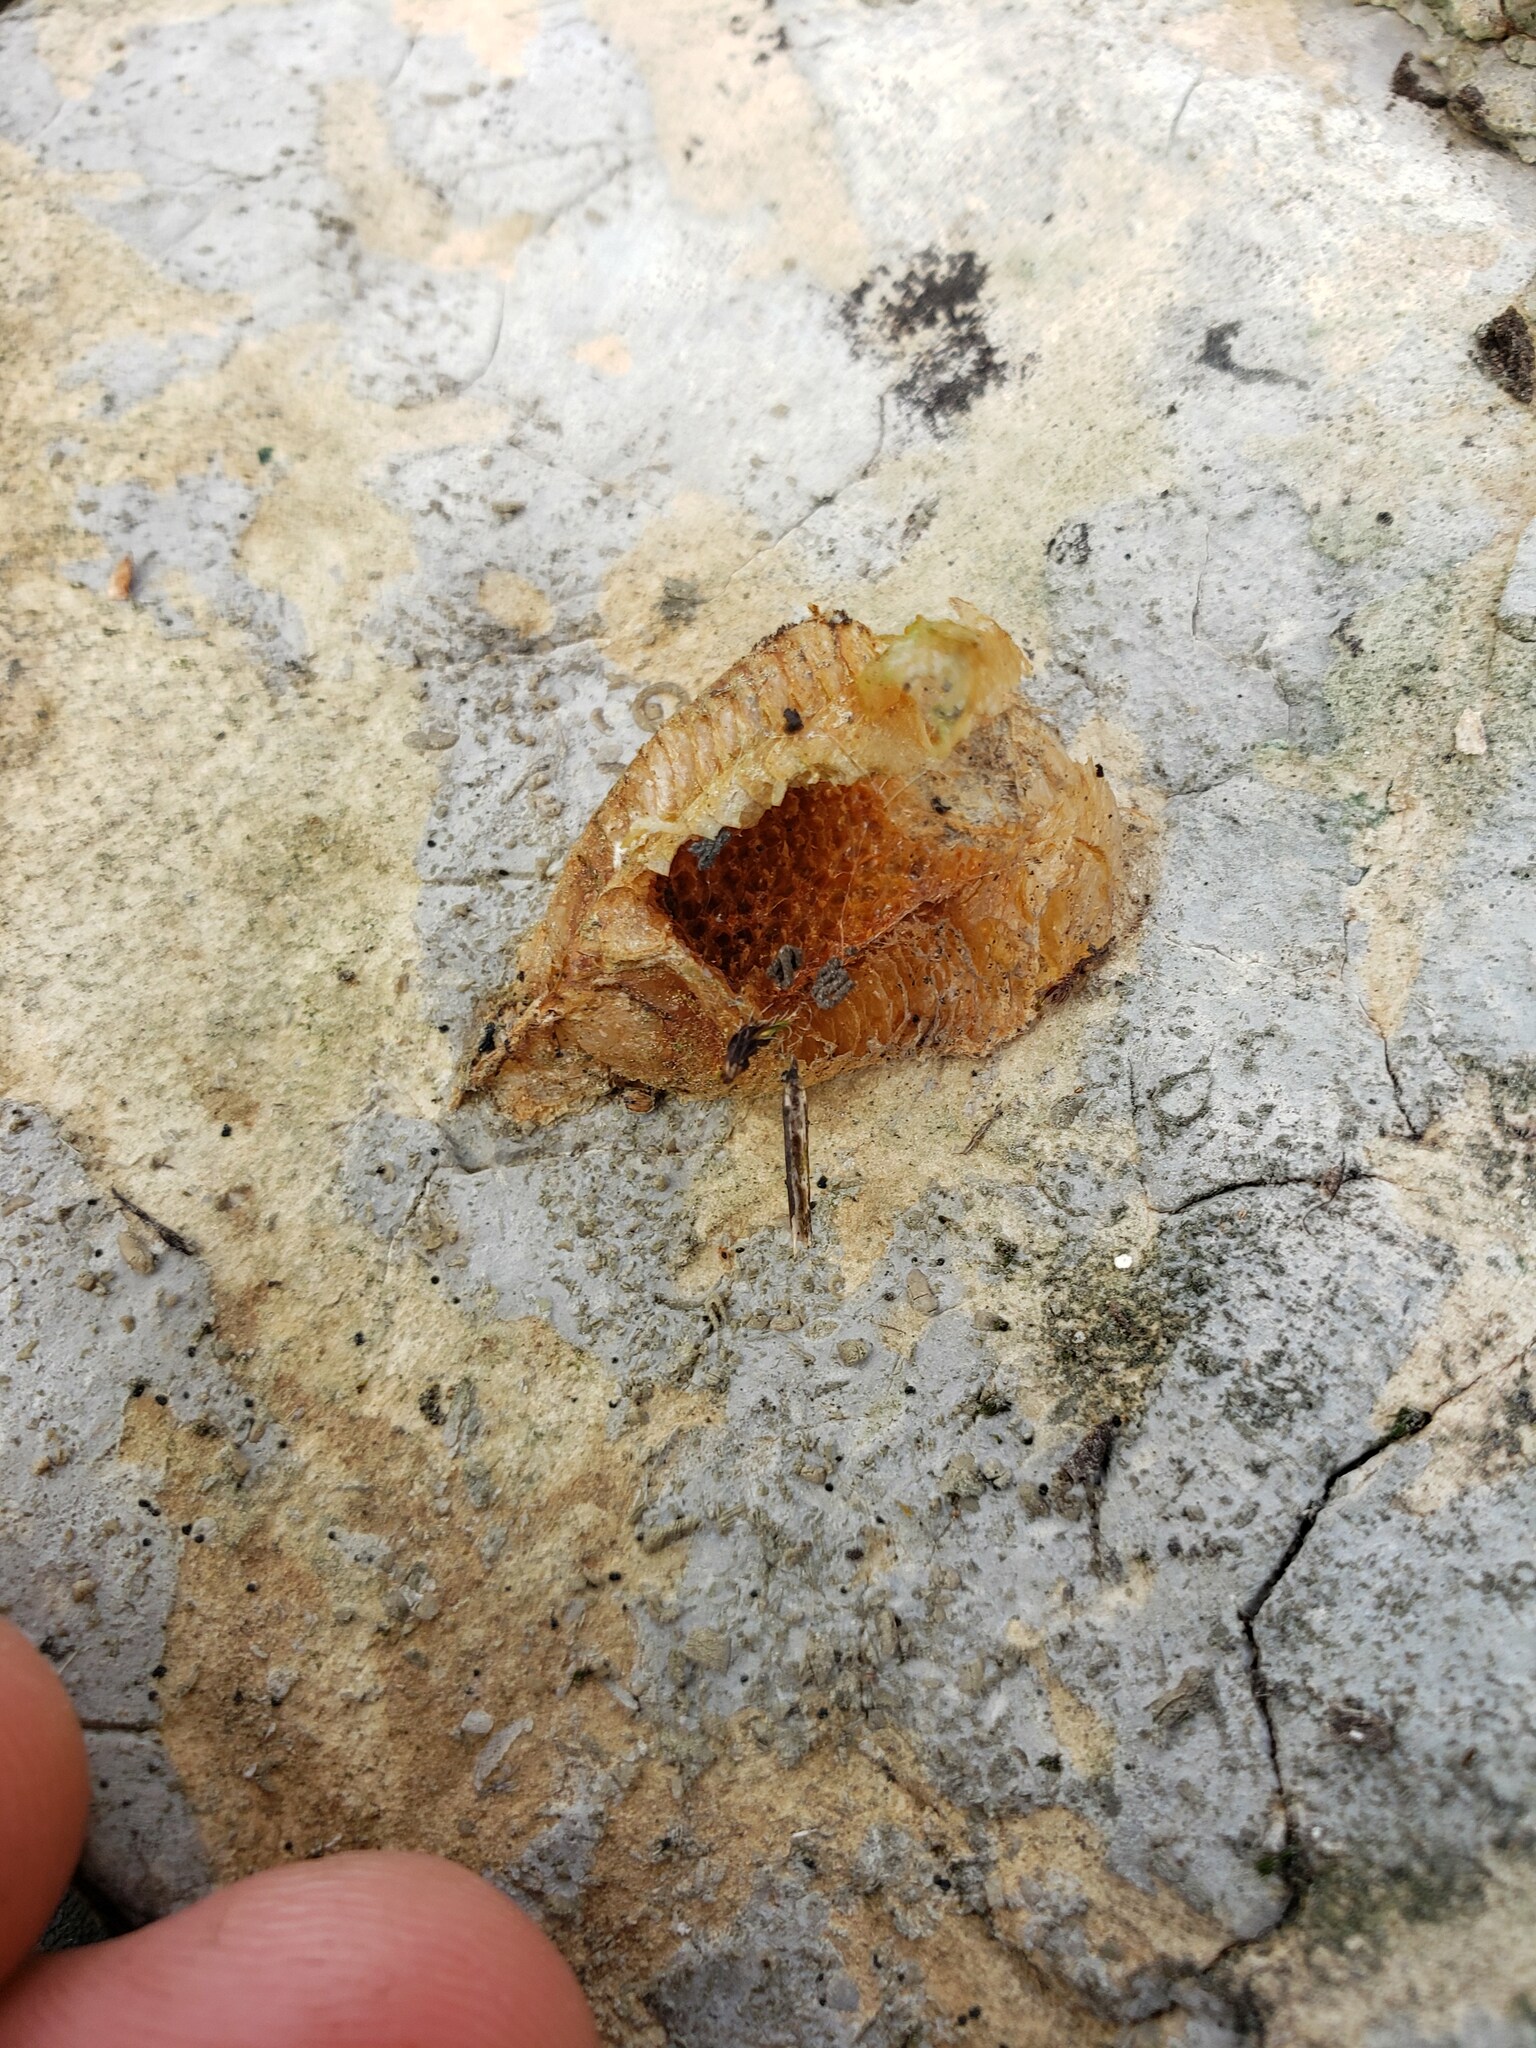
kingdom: Animalia
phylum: Arthropoda
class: Insecta
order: Mantodea
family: Mantidae
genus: Mantis
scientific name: Mantis religiosa
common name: Praying mantis
